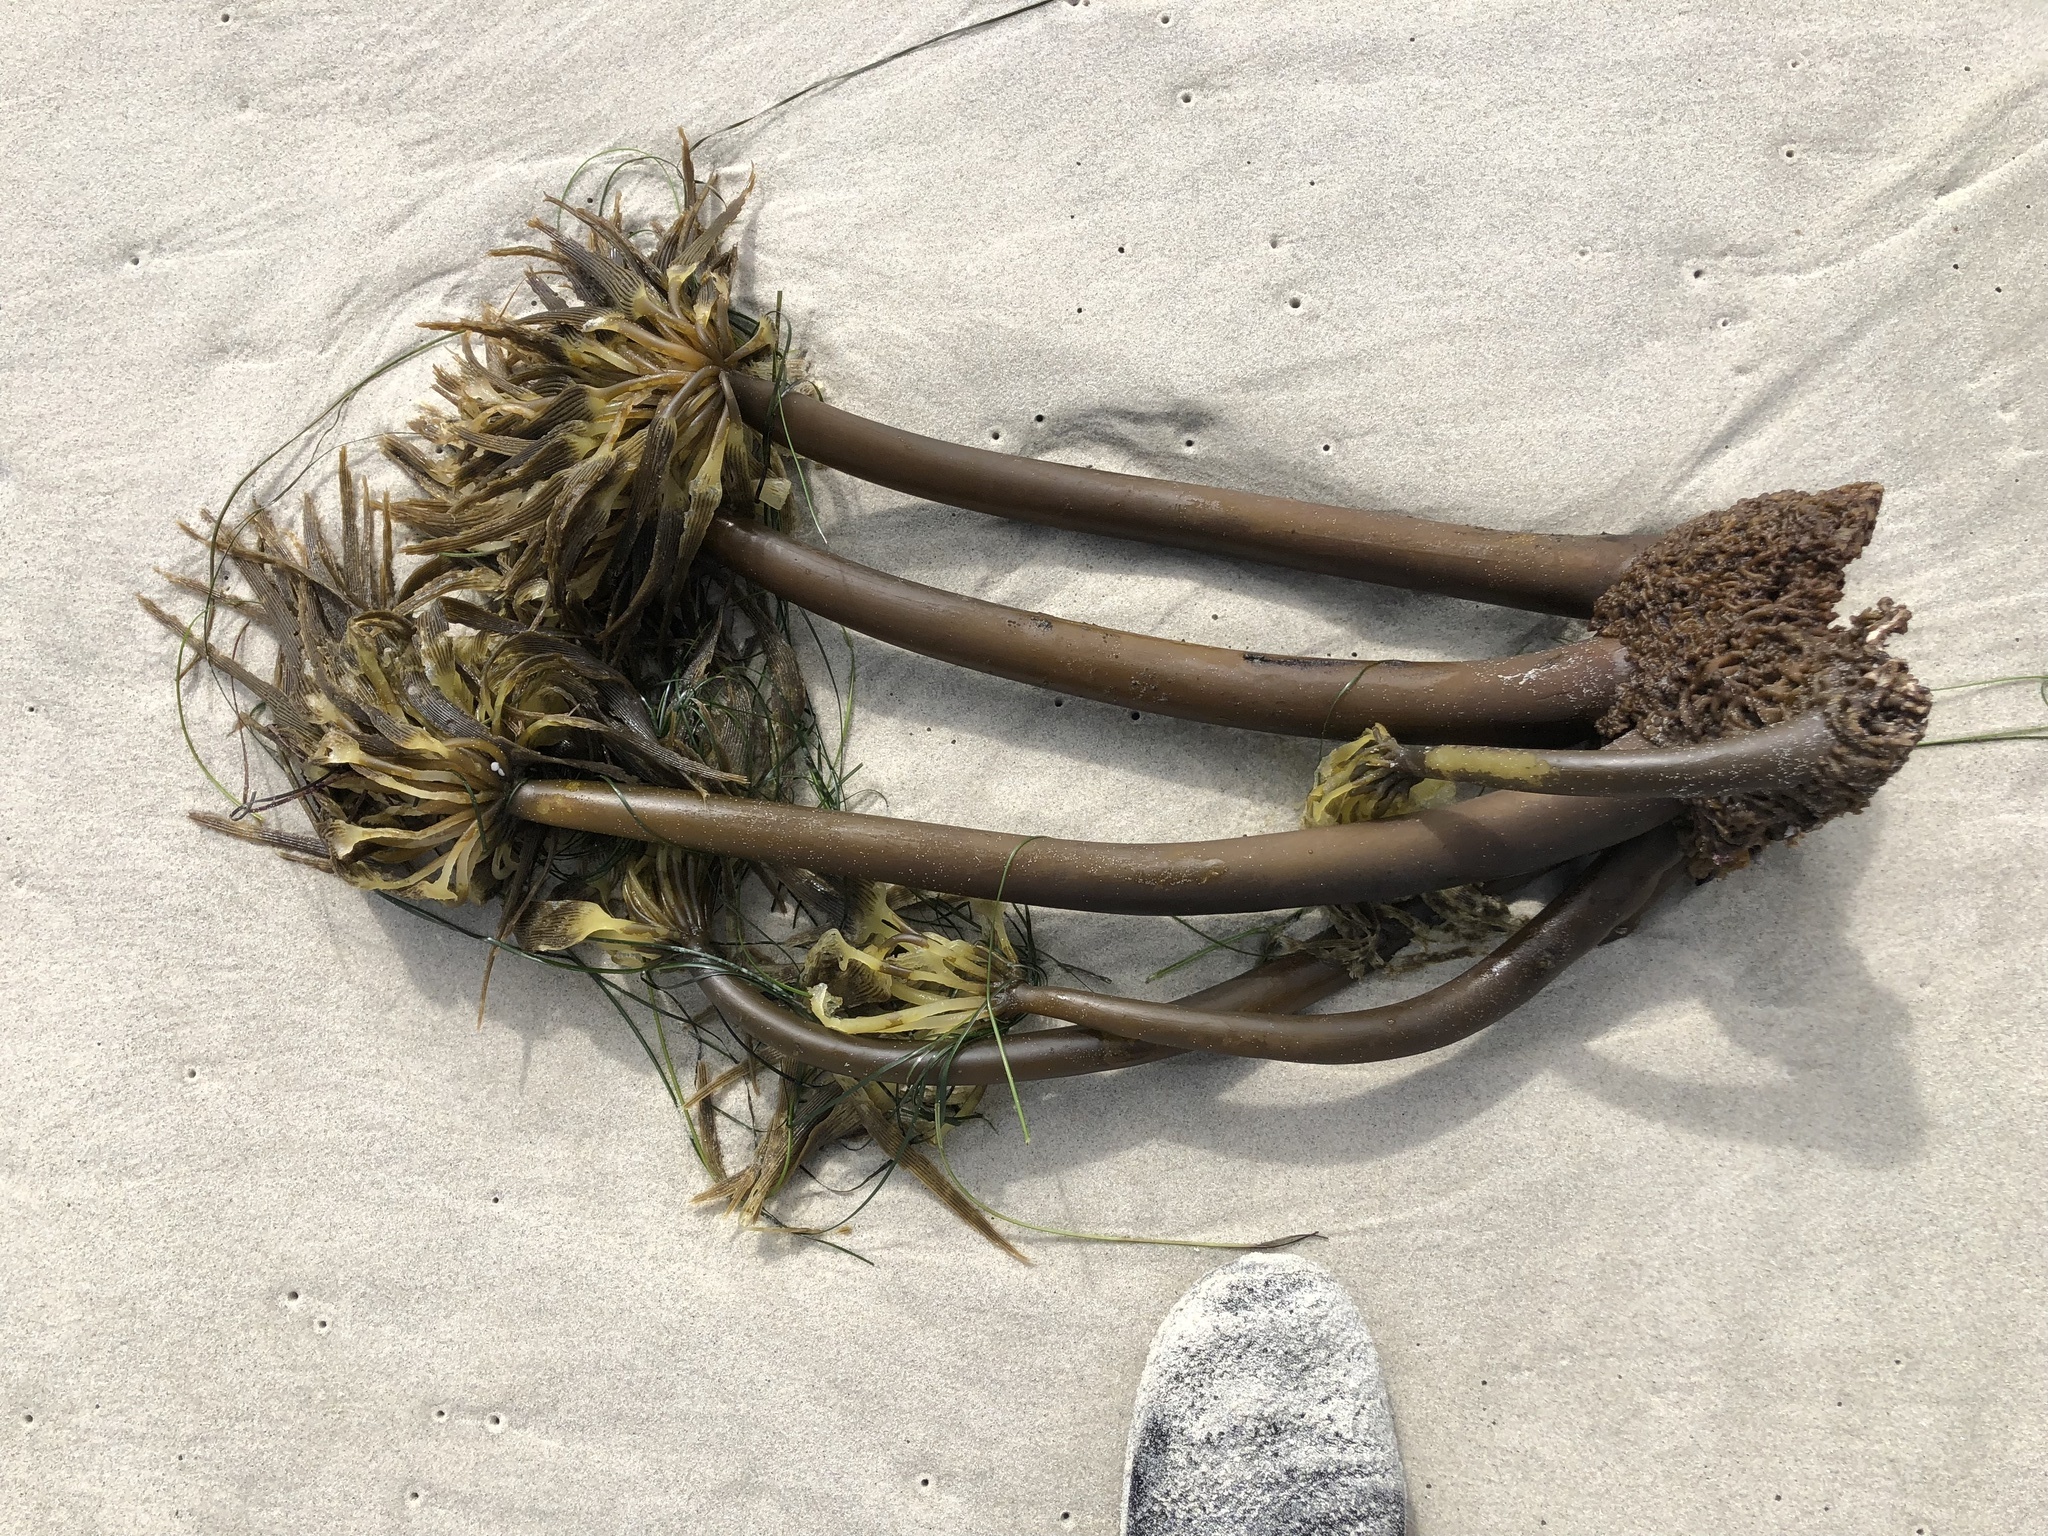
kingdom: Chromista
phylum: Ochrophyta
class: Phaeophyceae
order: Laminariales
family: Laminariaceae
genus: Postelsia
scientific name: Postelsia palmiformis
